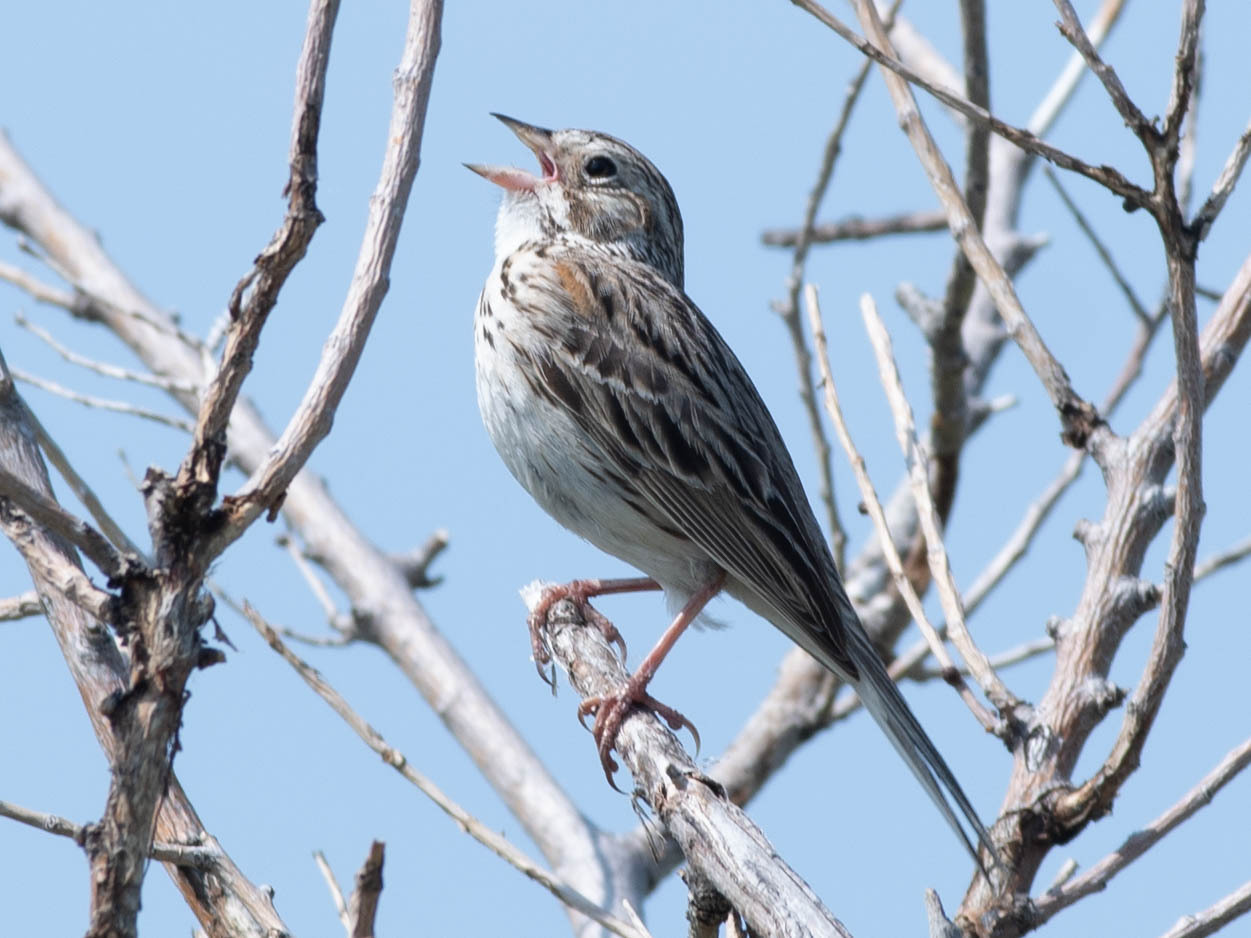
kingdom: Animalia
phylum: Chordata
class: Aves
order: Passeriformes
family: Passerellidae
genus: Pooecetes
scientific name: Pooecetes gramineus
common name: Vesper sparrow
